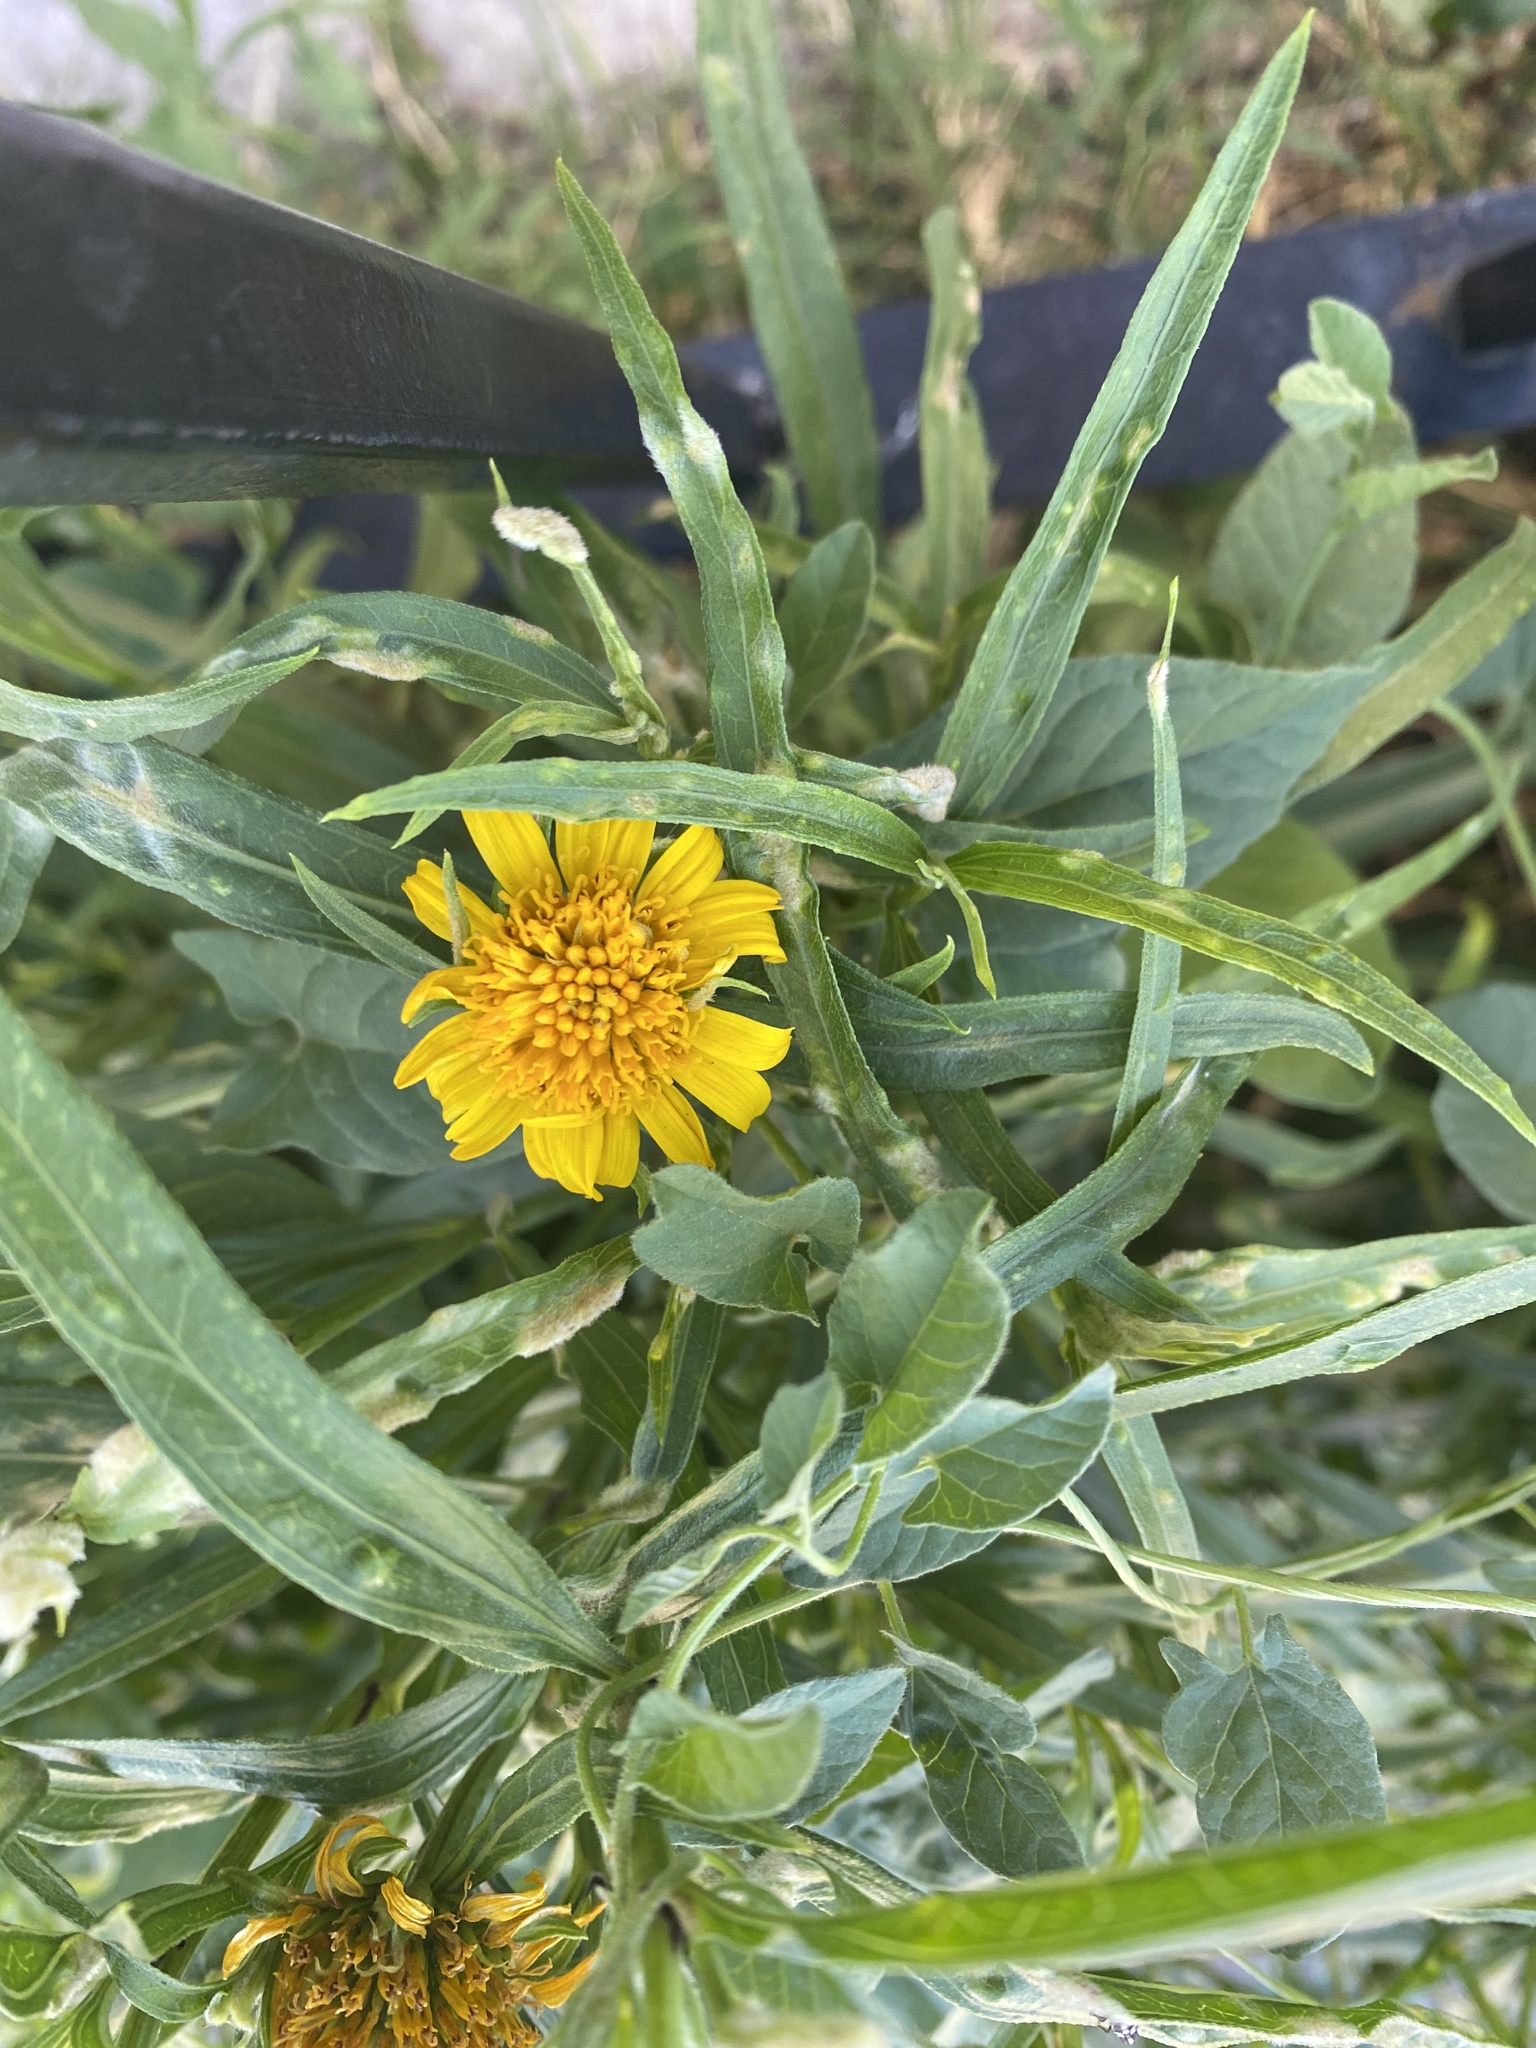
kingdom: Plantae
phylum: Tracheophyta
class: Magnoliopsida
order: Asterales
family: Asteraceae
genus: Pascalia
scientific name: Pascalia glauca
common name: Beach creeping oxeye
